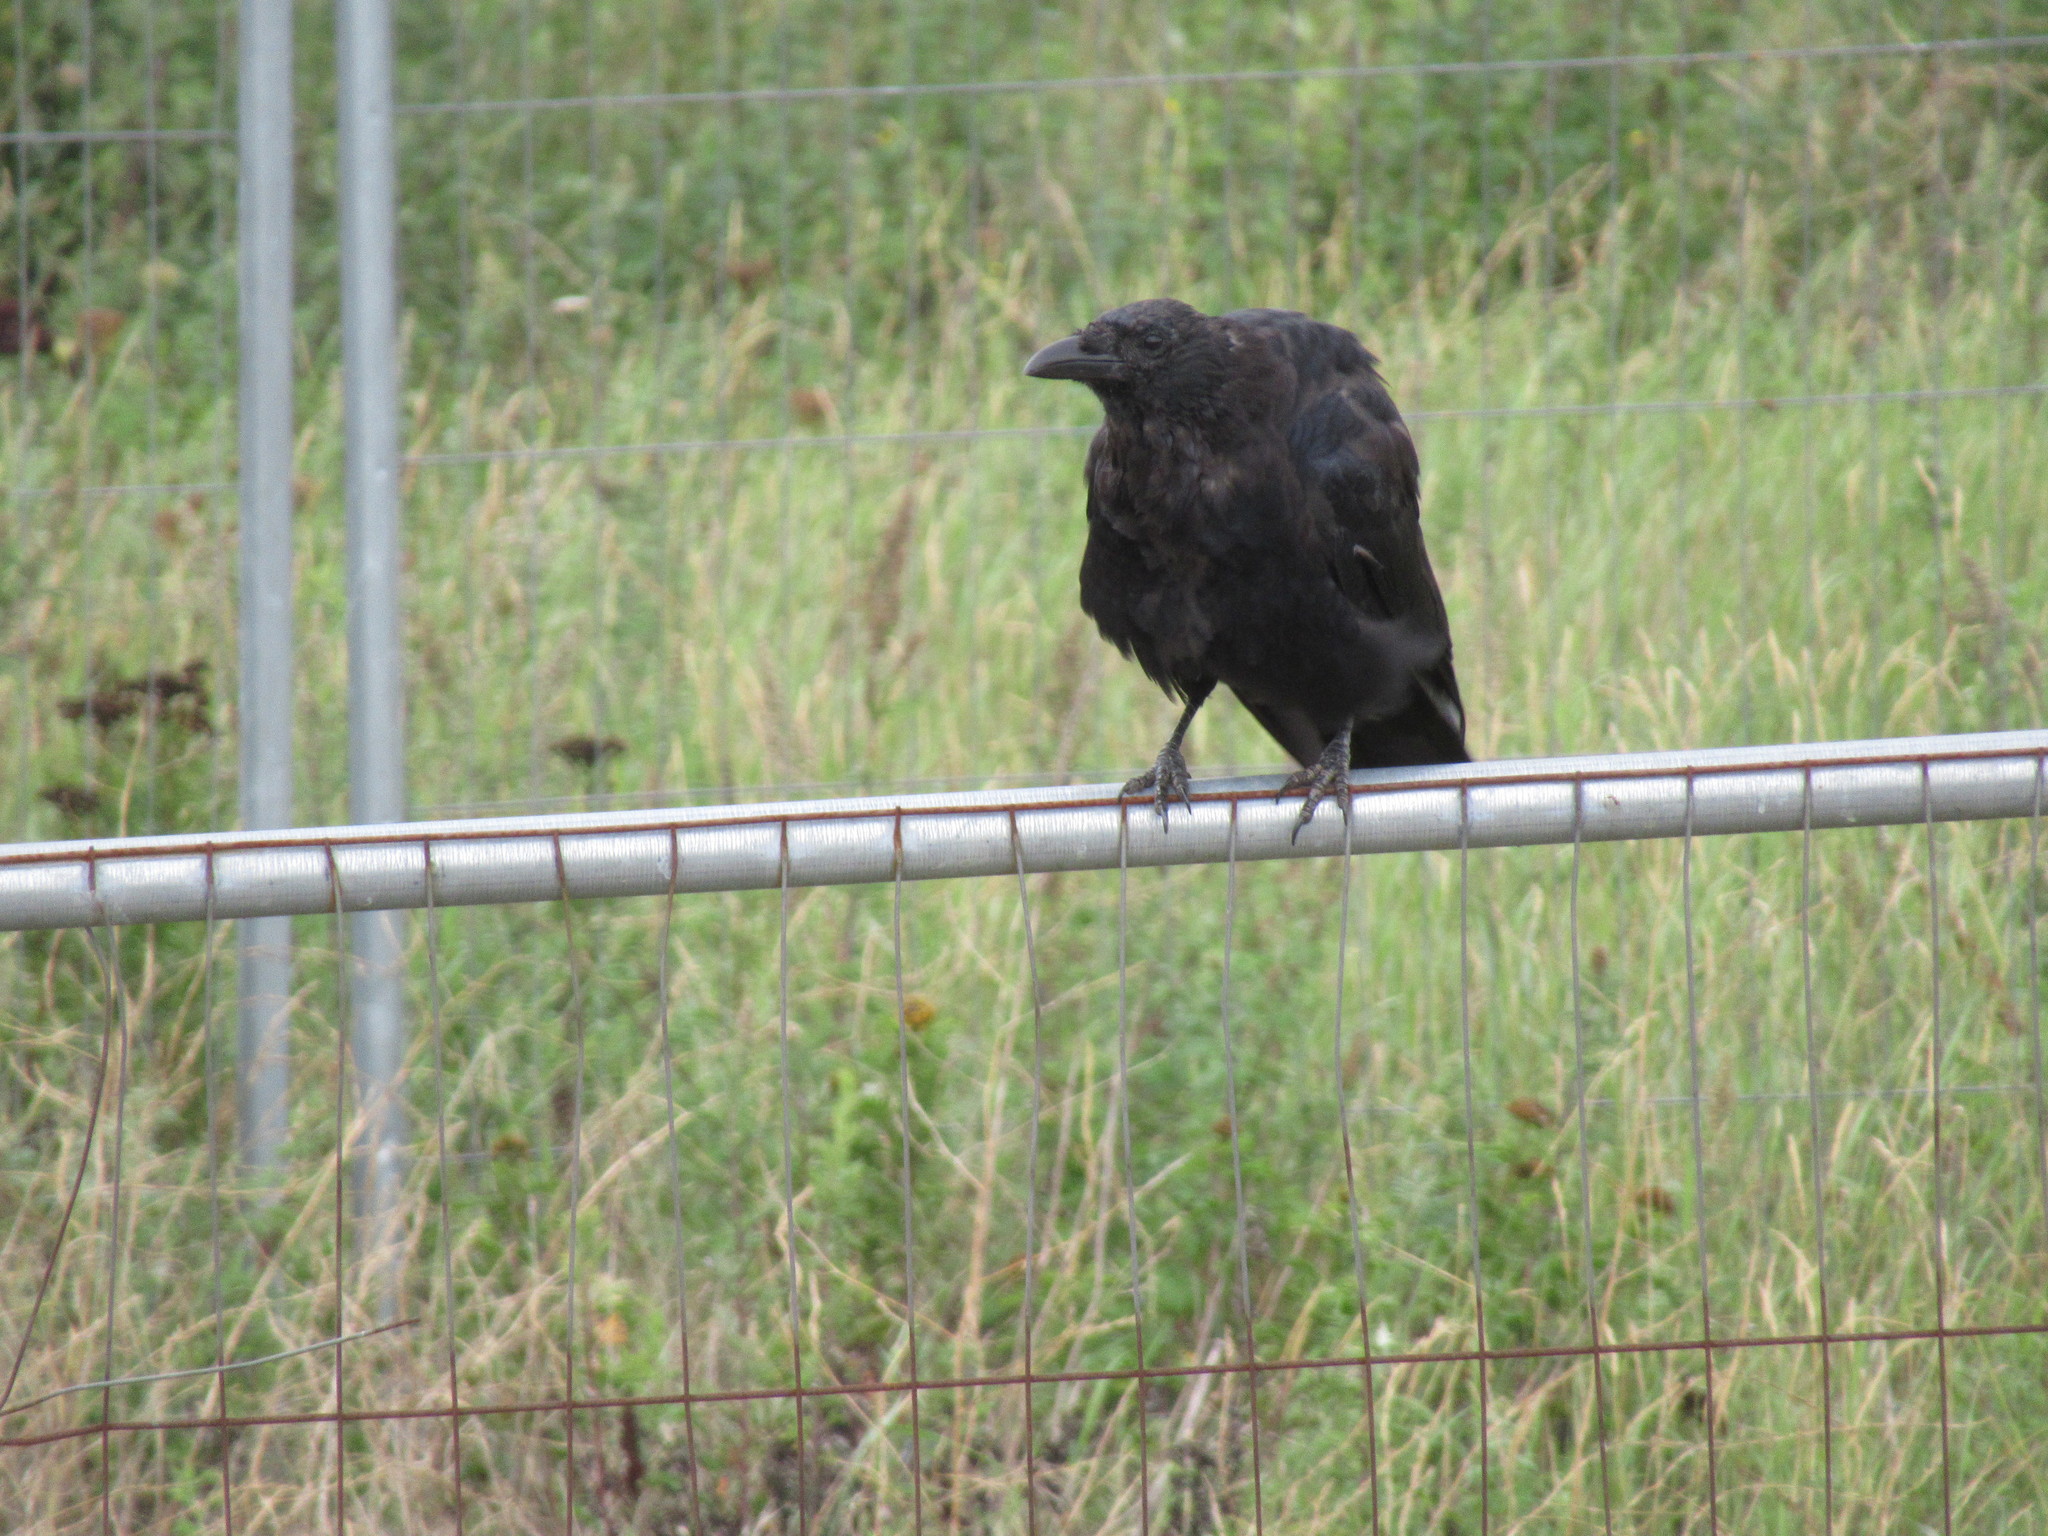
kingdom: Animalia
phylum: Chordata
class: Aves
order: Passeriformes
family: Corvidae
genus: Corvus
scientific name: Corvus corone
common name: Carrion crow
